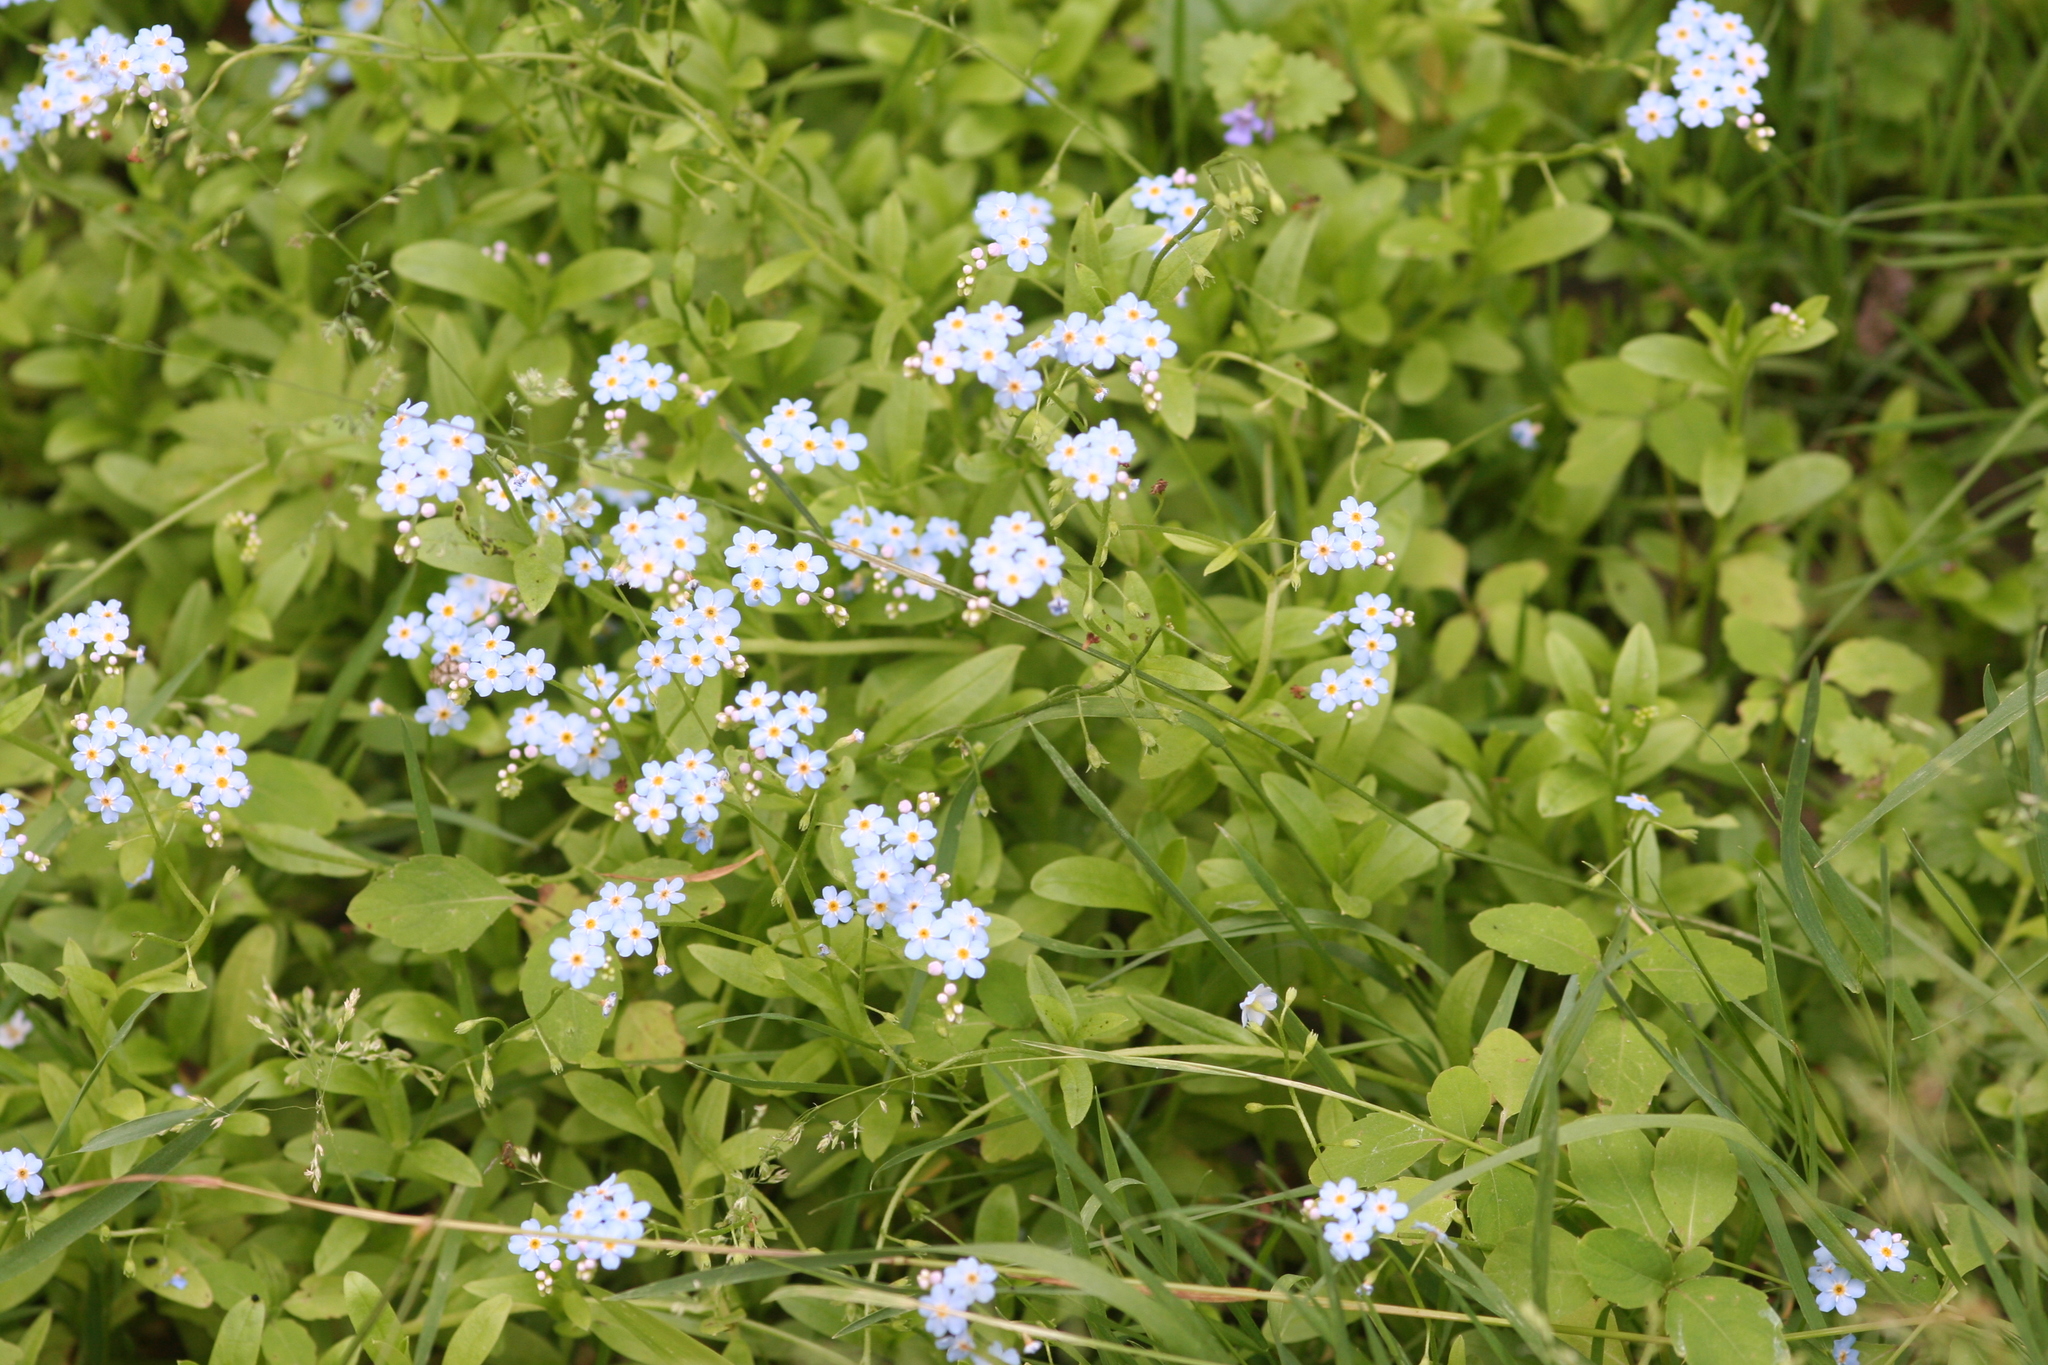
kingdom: Plantae
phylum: Tracheophyta
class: Magnoliopsida
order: Boraginales
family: Boraginaceae
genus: Myosotis
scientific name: Myosotis scorpioides
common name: Water forget-me-not
